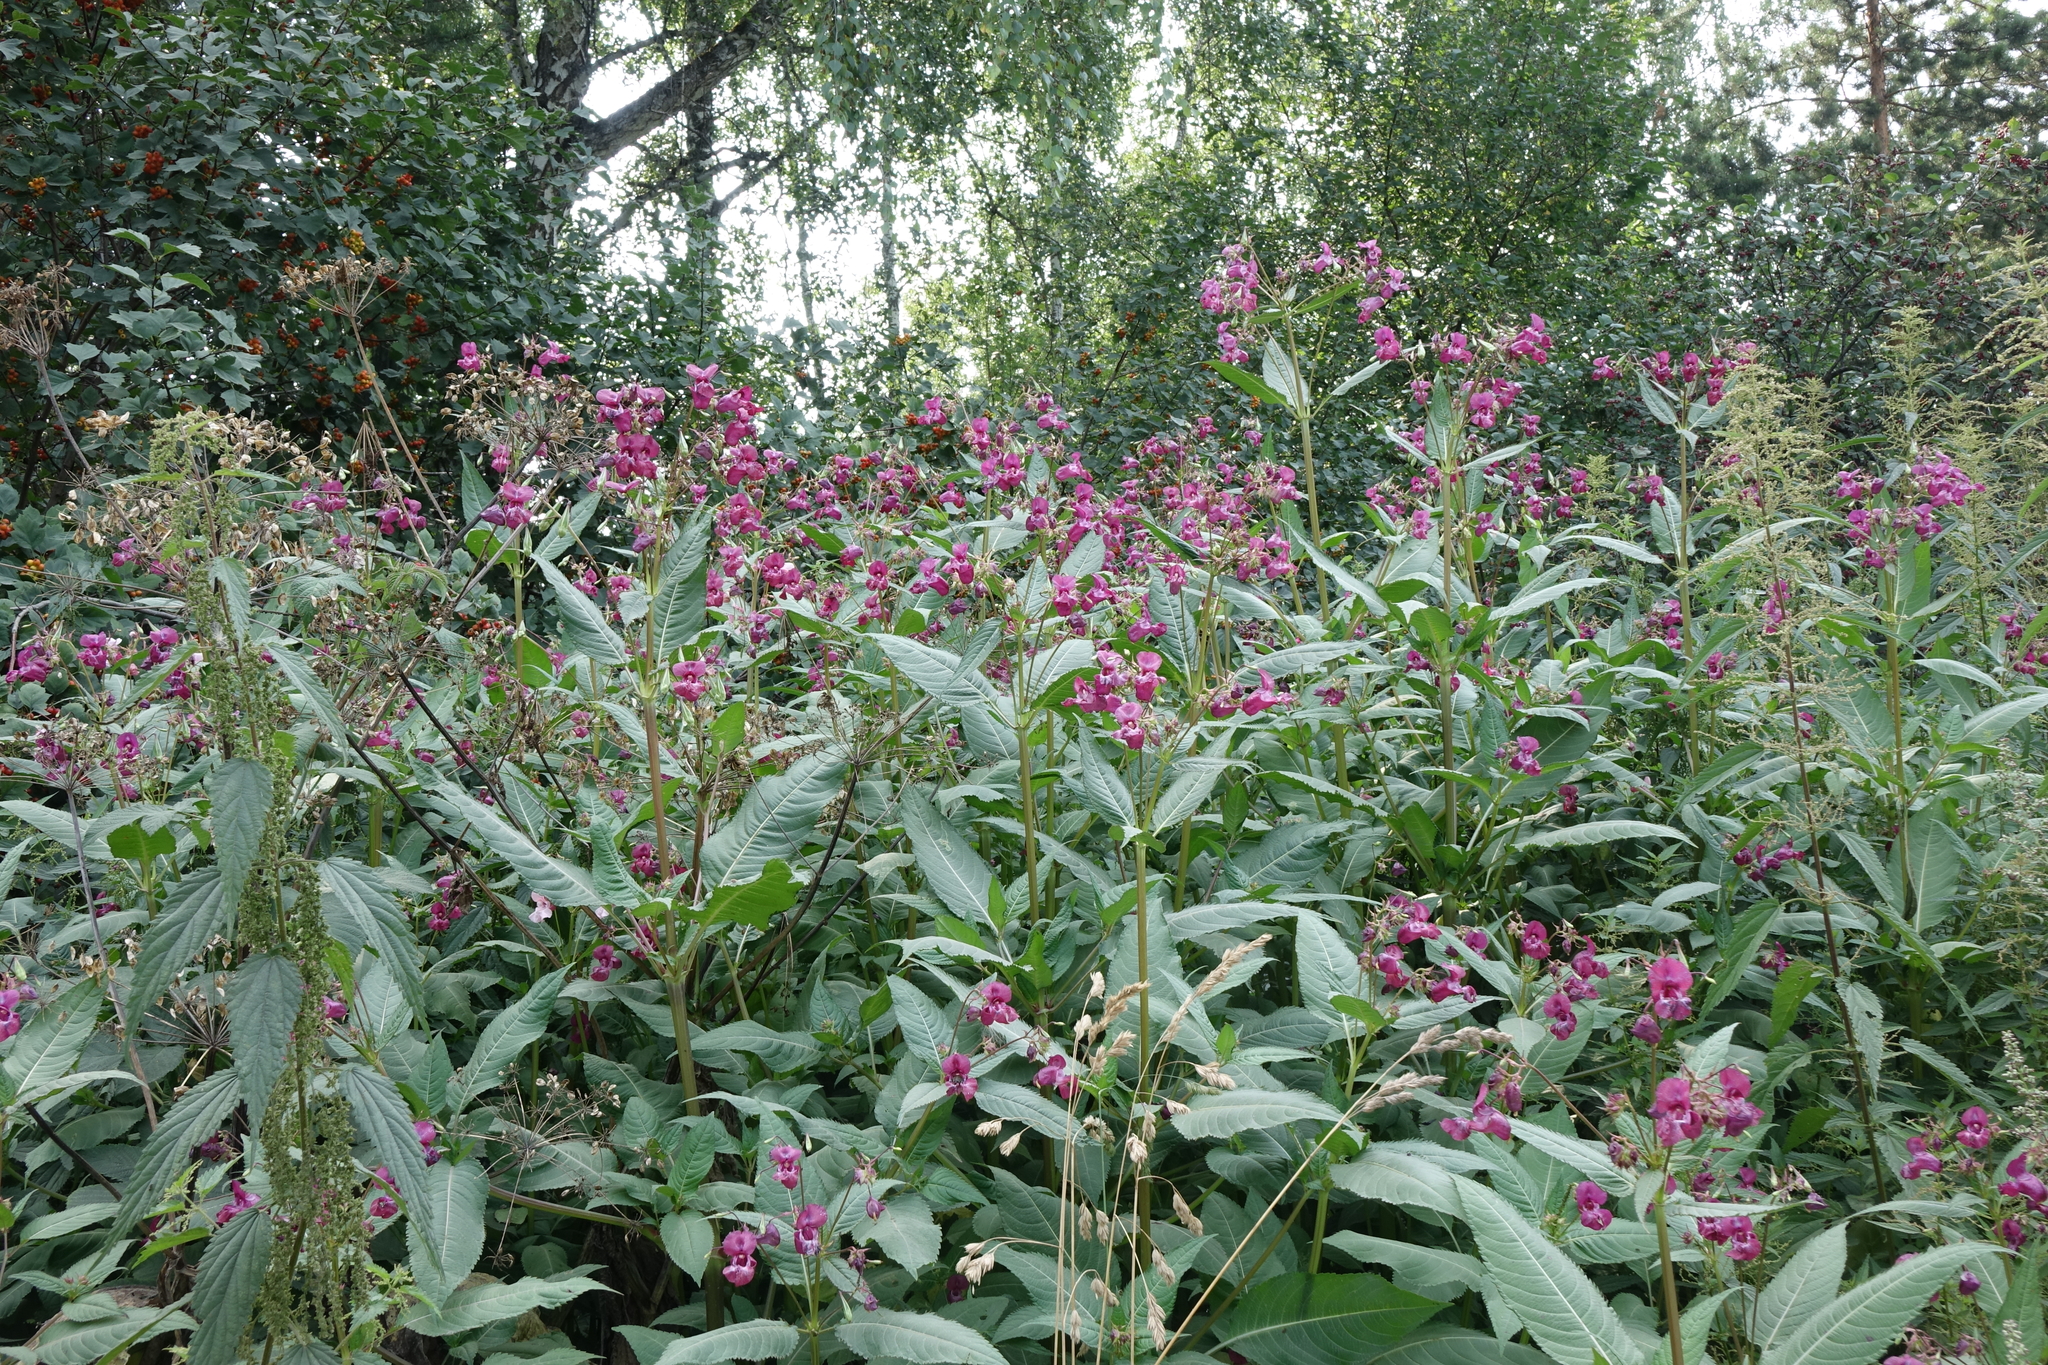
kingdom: Plantae
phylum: Tracheophyta
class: Magnoliopsida
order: Ericales
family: Balsaminaceae
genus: Impatiens
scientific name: Impatiens glandulifera
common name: Himalayan balsam
